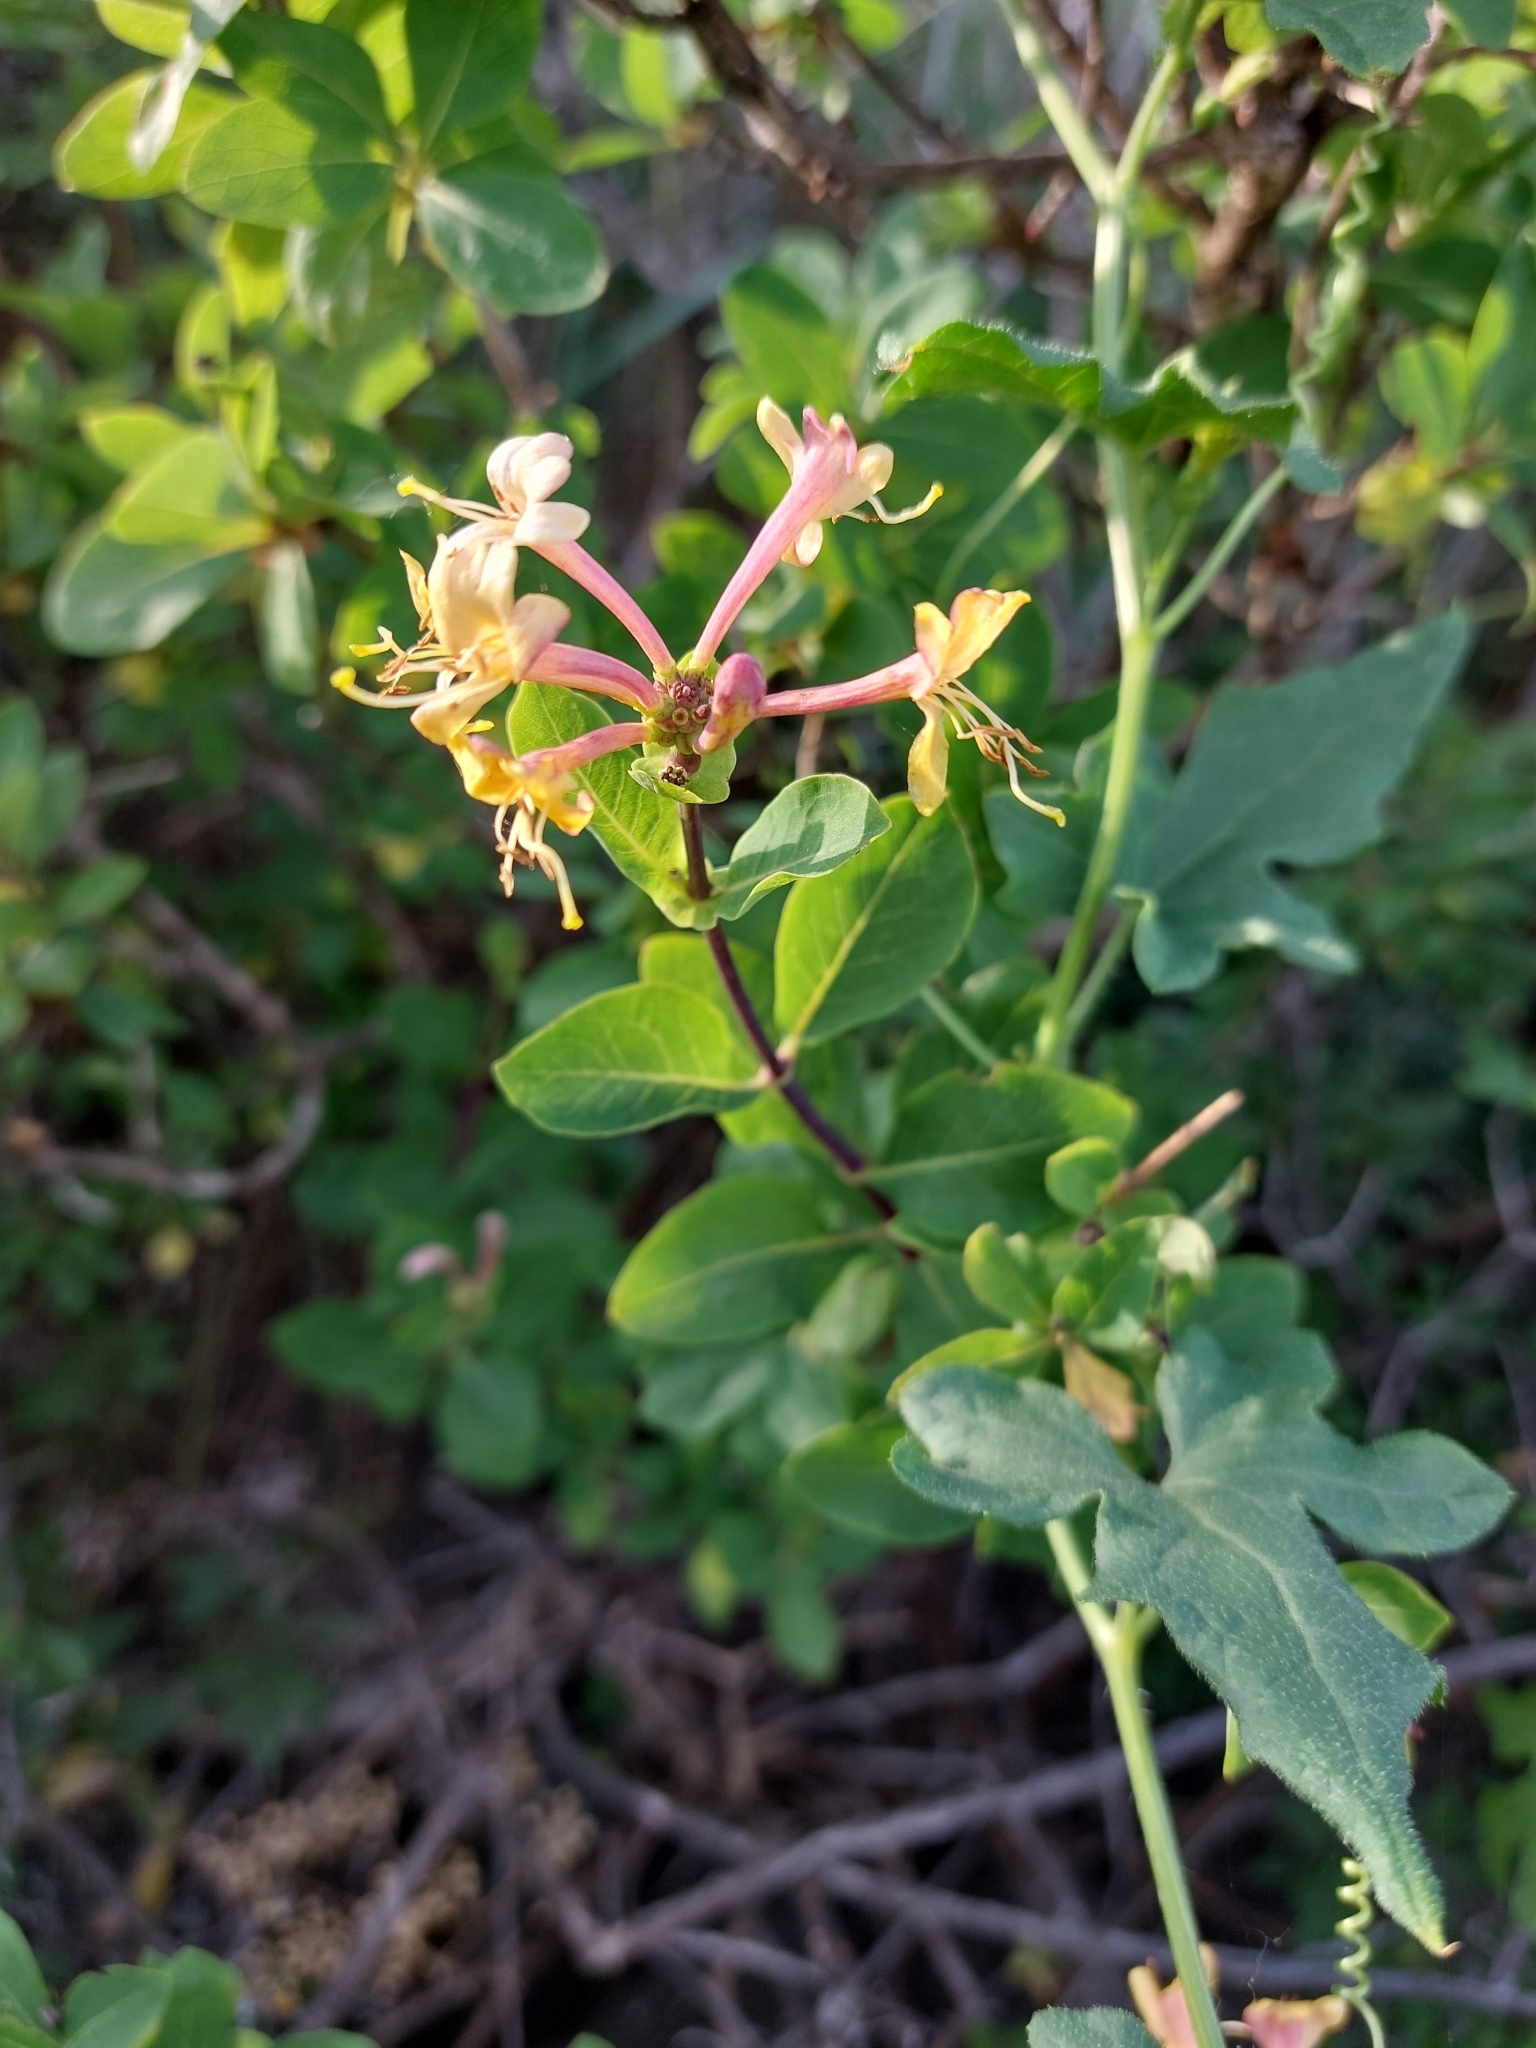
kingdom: Plantae
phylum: Tracheophyta
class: Magnoliopsida
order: Dipsacales
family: Caprifoliaceae
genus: Lonicera
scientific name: Lonicera etrusca
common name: Etruscan honeysuckle
